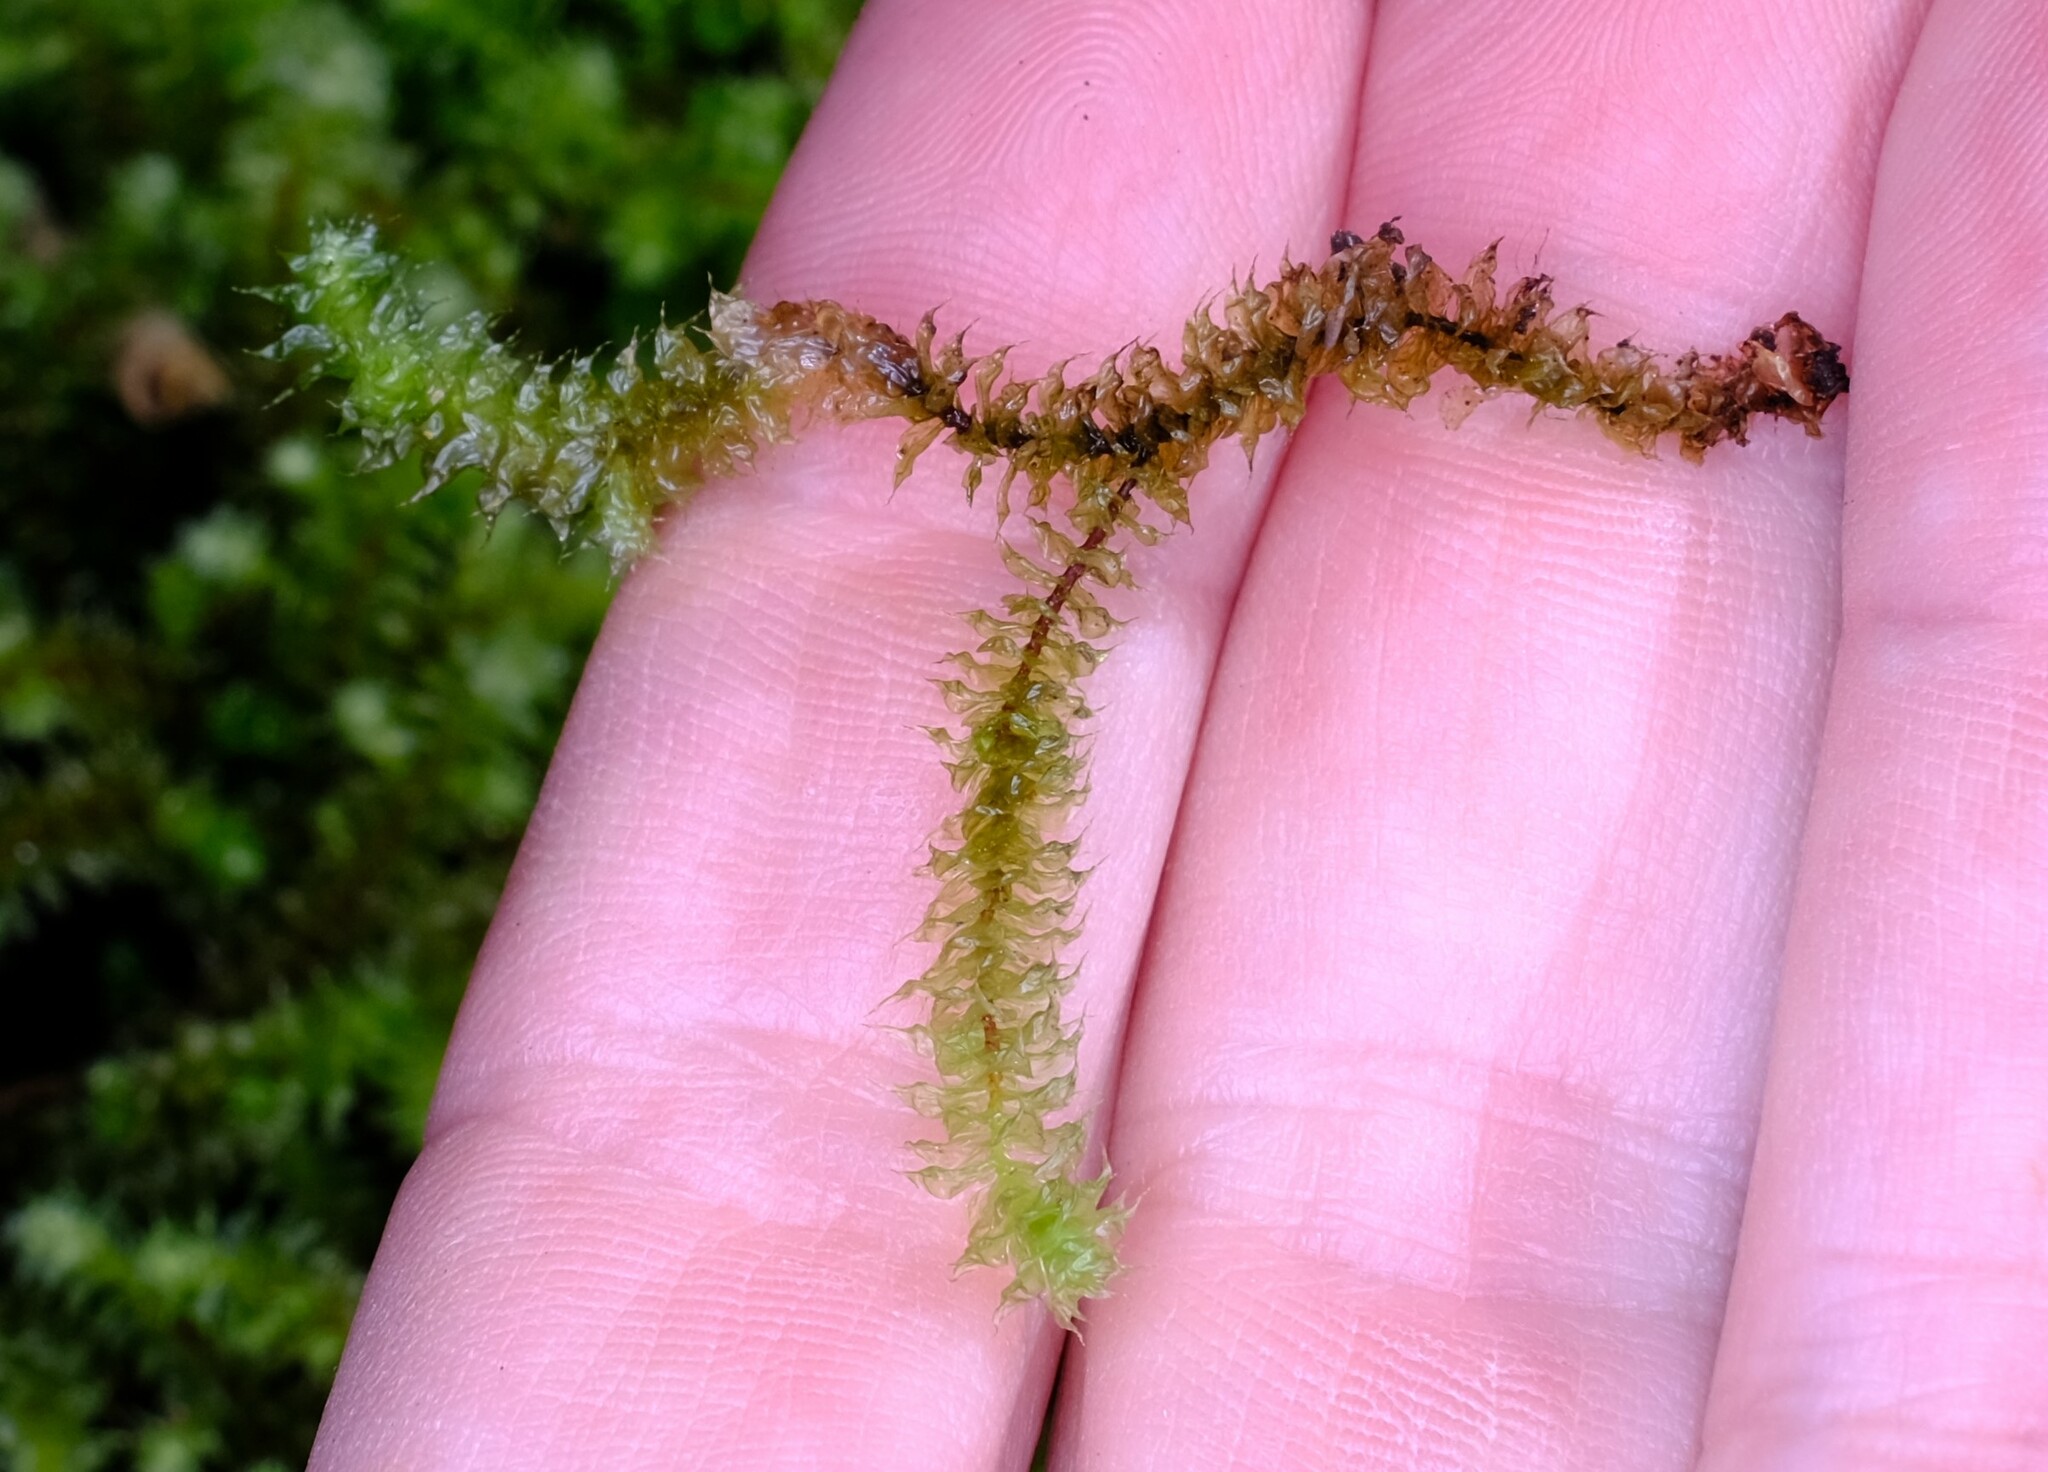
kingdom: Plantae
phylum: Bryophyta
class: Bryopsida
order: Ptychomniales
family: Ptychomniaceae
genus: Ptychomnion
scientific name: Ptychomnion aciculare
